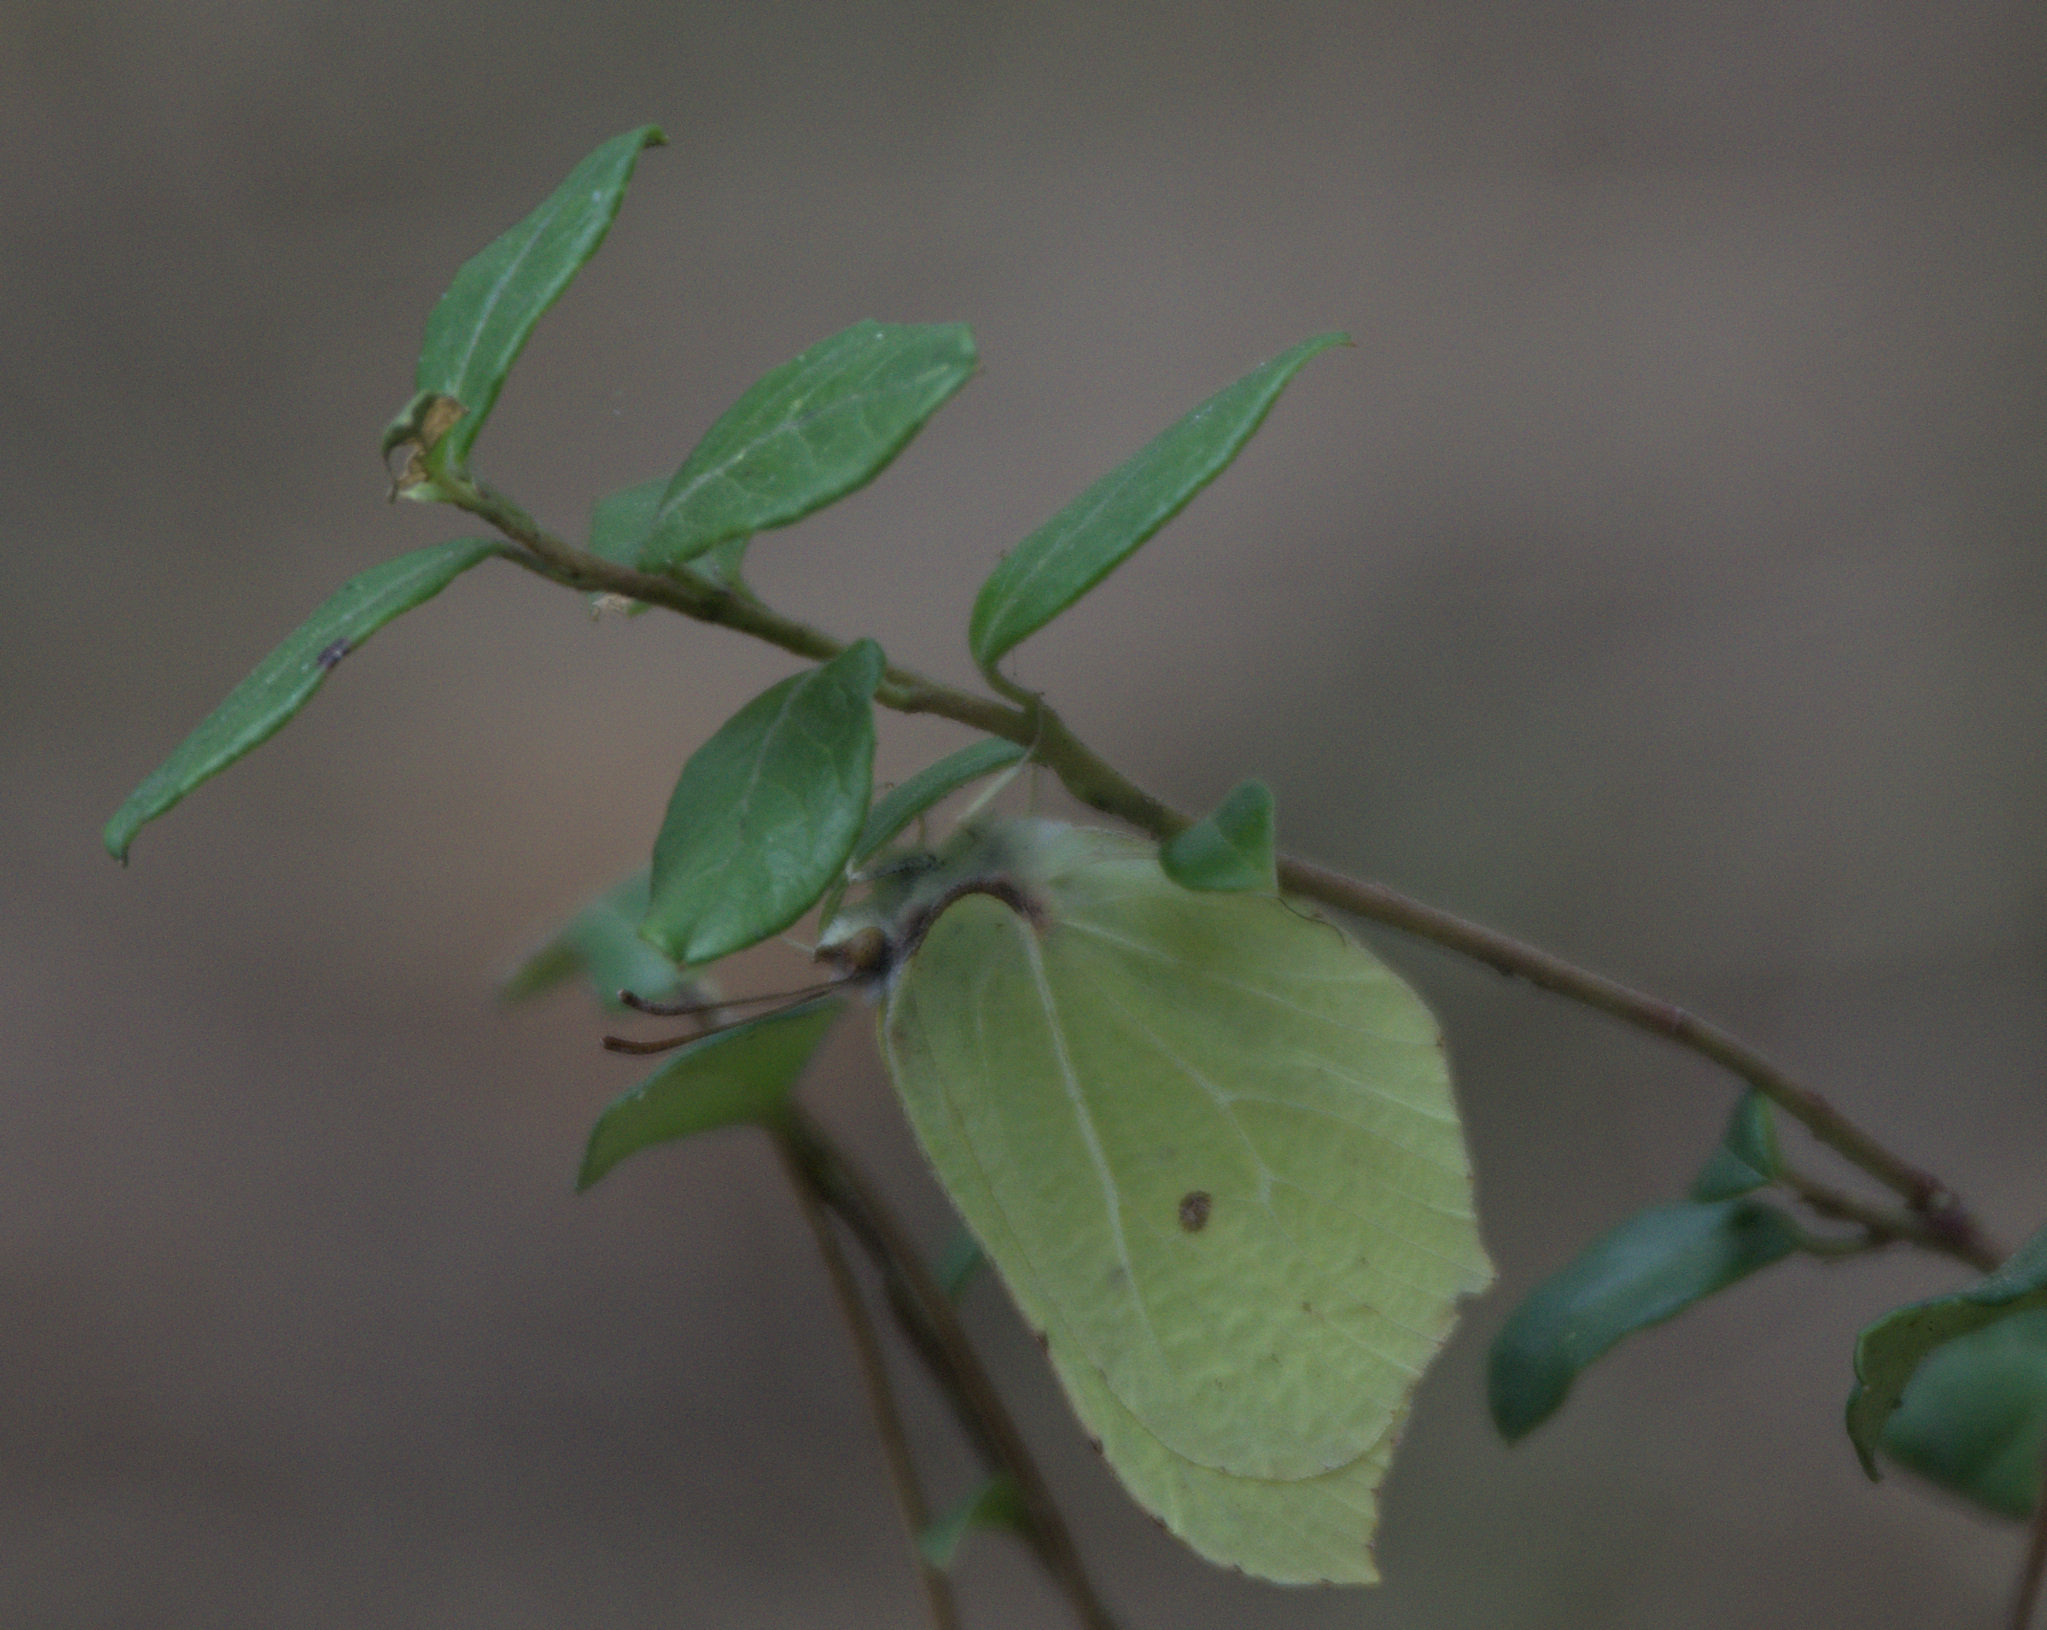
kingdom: Animalia
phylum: Arthropoda
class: Insecta
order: Lepidoptera
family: Pieridae
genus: Gonepteryx
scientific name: Gonepteryx rhamni
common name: Brimstone
